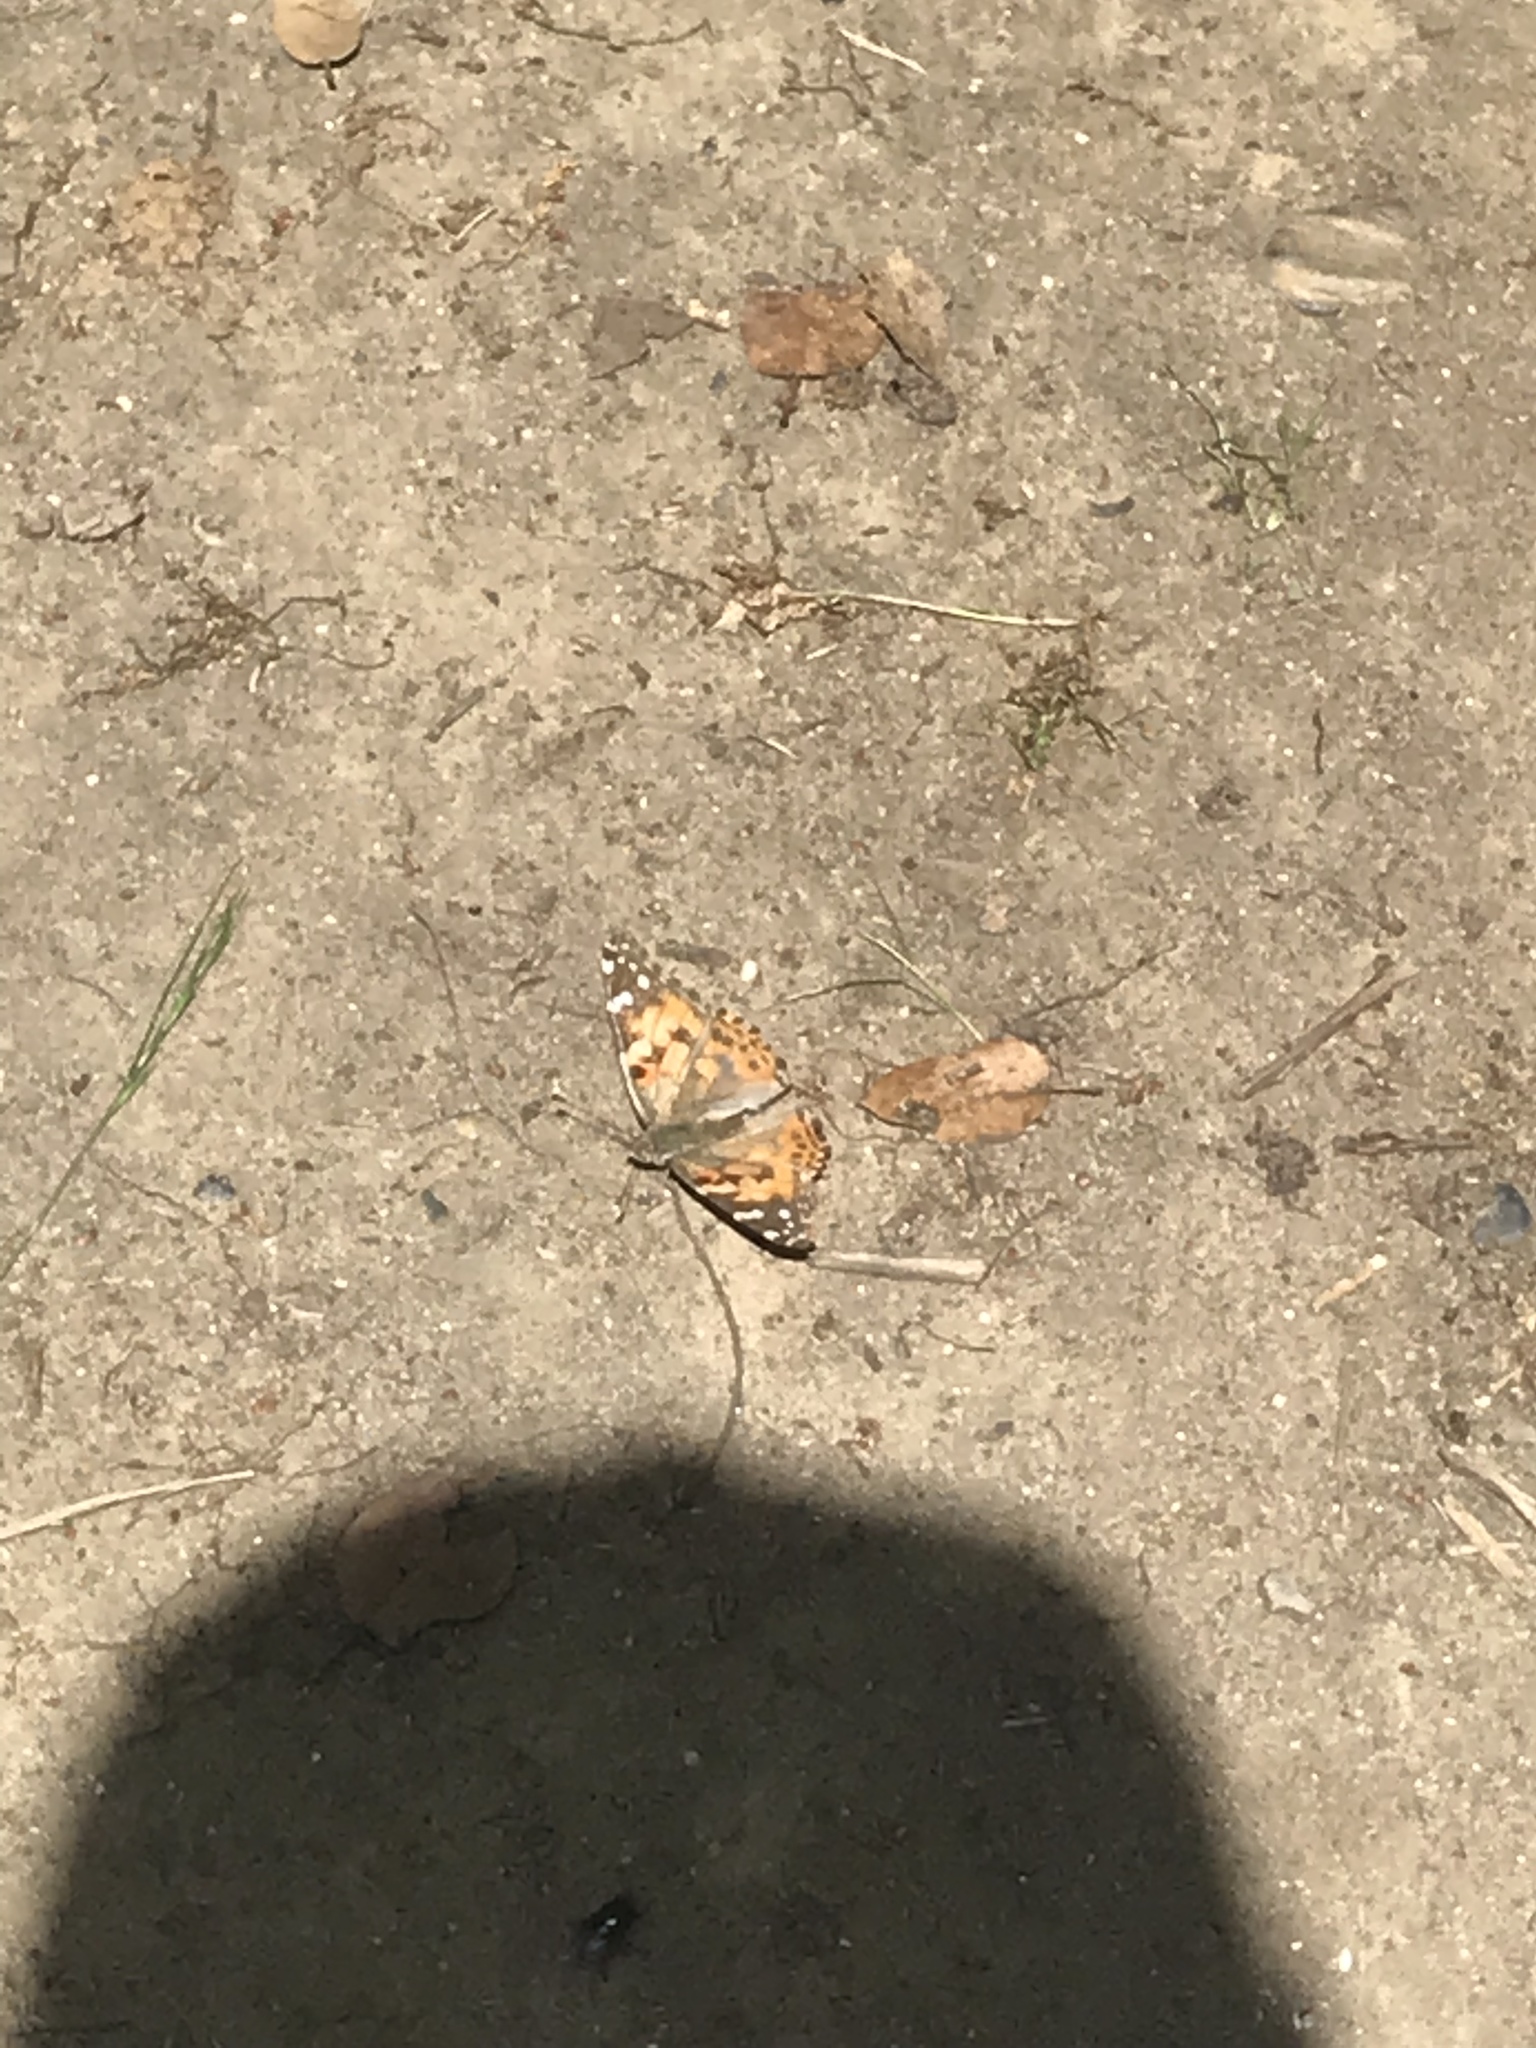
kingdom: Animalia
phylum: Arthropoda
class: Insecta
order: Lepidoptera
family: Nymphalidae
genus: Vanessa
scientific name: Vanessa cardui
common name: Painted lady
